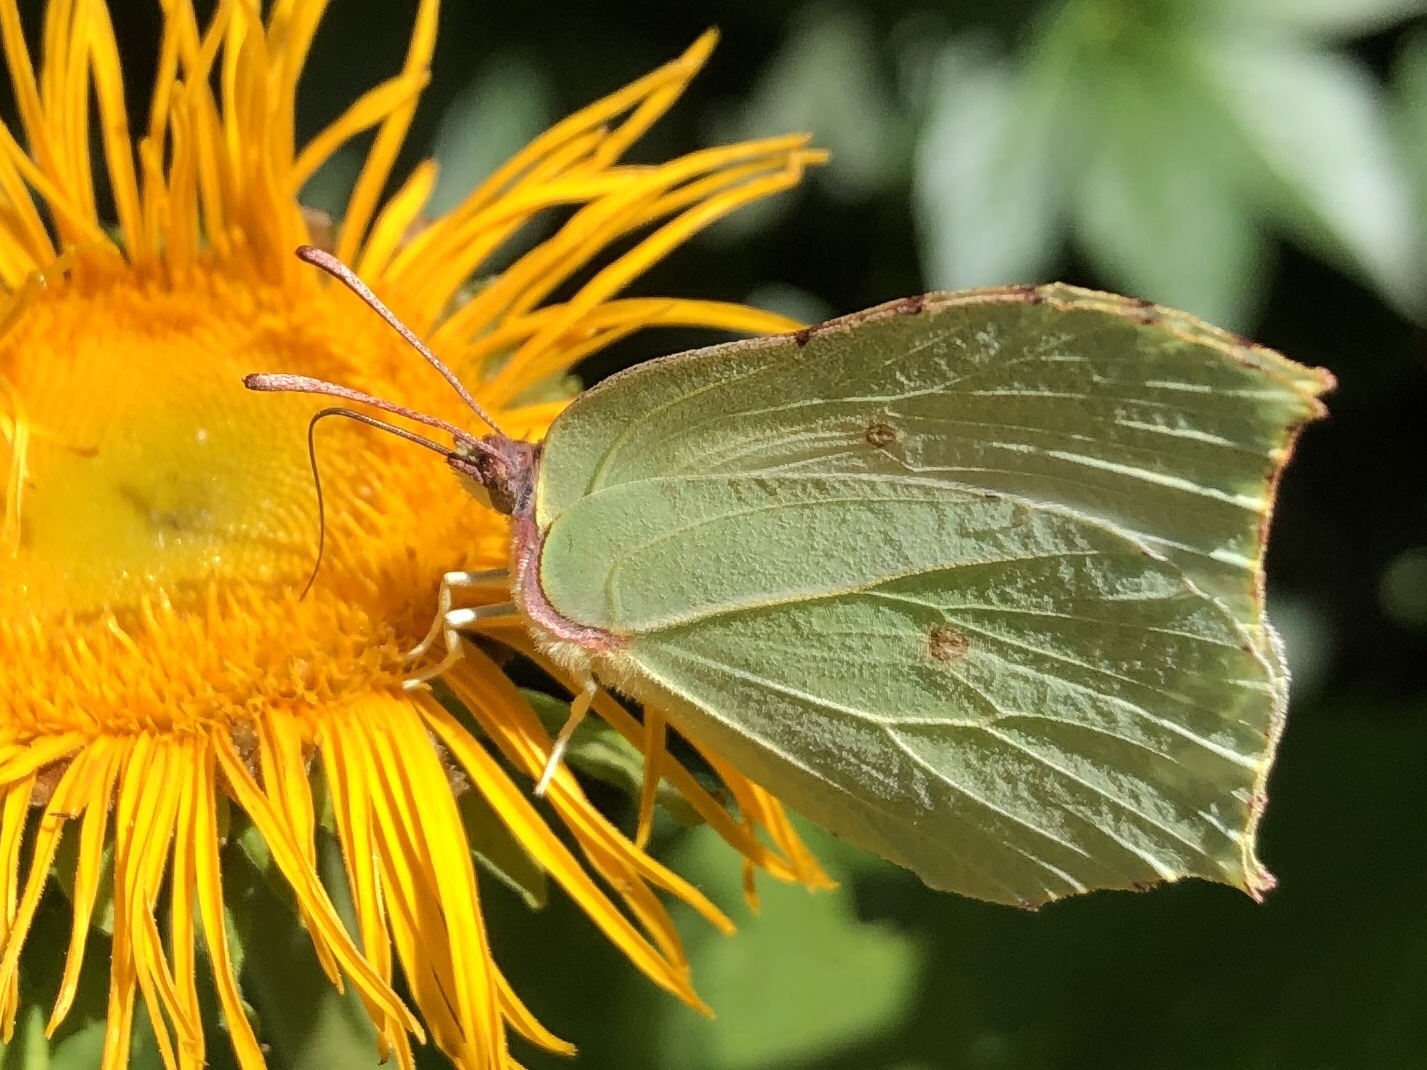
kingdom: Animalia
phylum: Arthropoda
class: Insecta
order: Lepidoptera
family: Pieridae
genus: Gonepteryx
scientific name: Gonepteryx rhamni
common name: Brimstone
